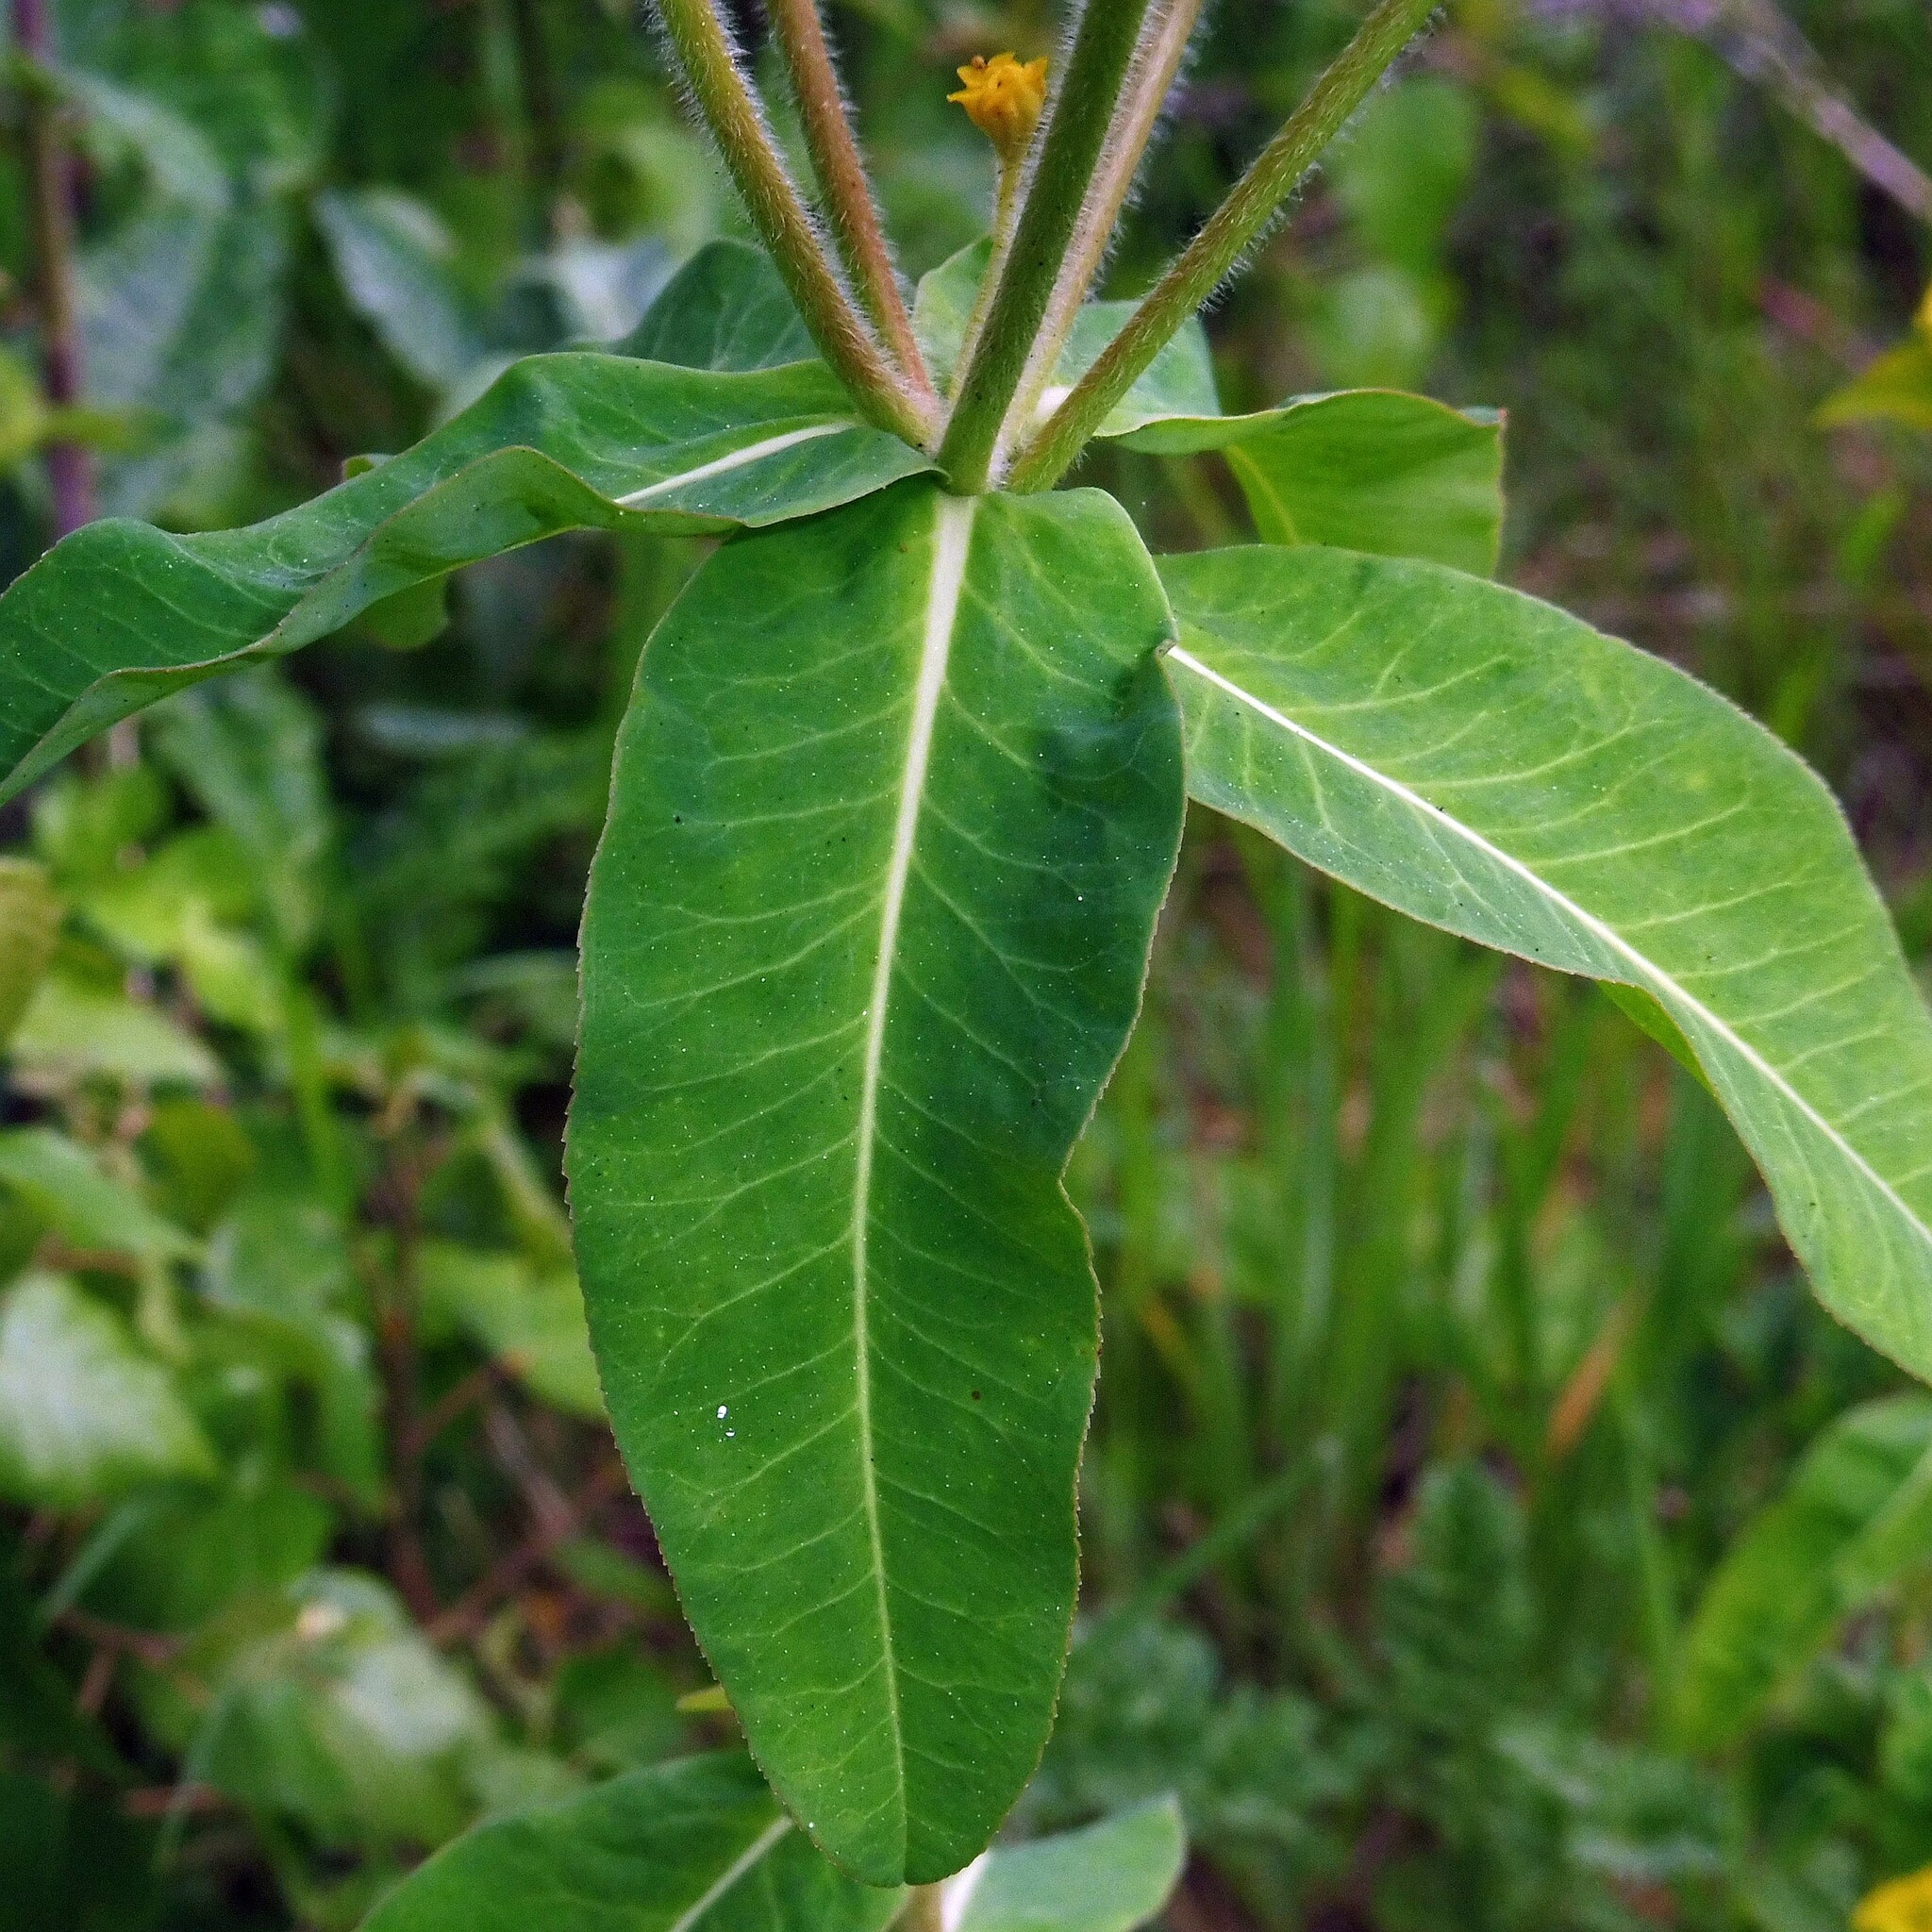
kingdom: Plantae
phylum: Tracheophyta
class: Magnoliopsida
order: Malpighiales
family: Euphorbiaceae
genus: Euphorbia
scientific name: Euphorbia oblongata
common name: Balkan spurge
